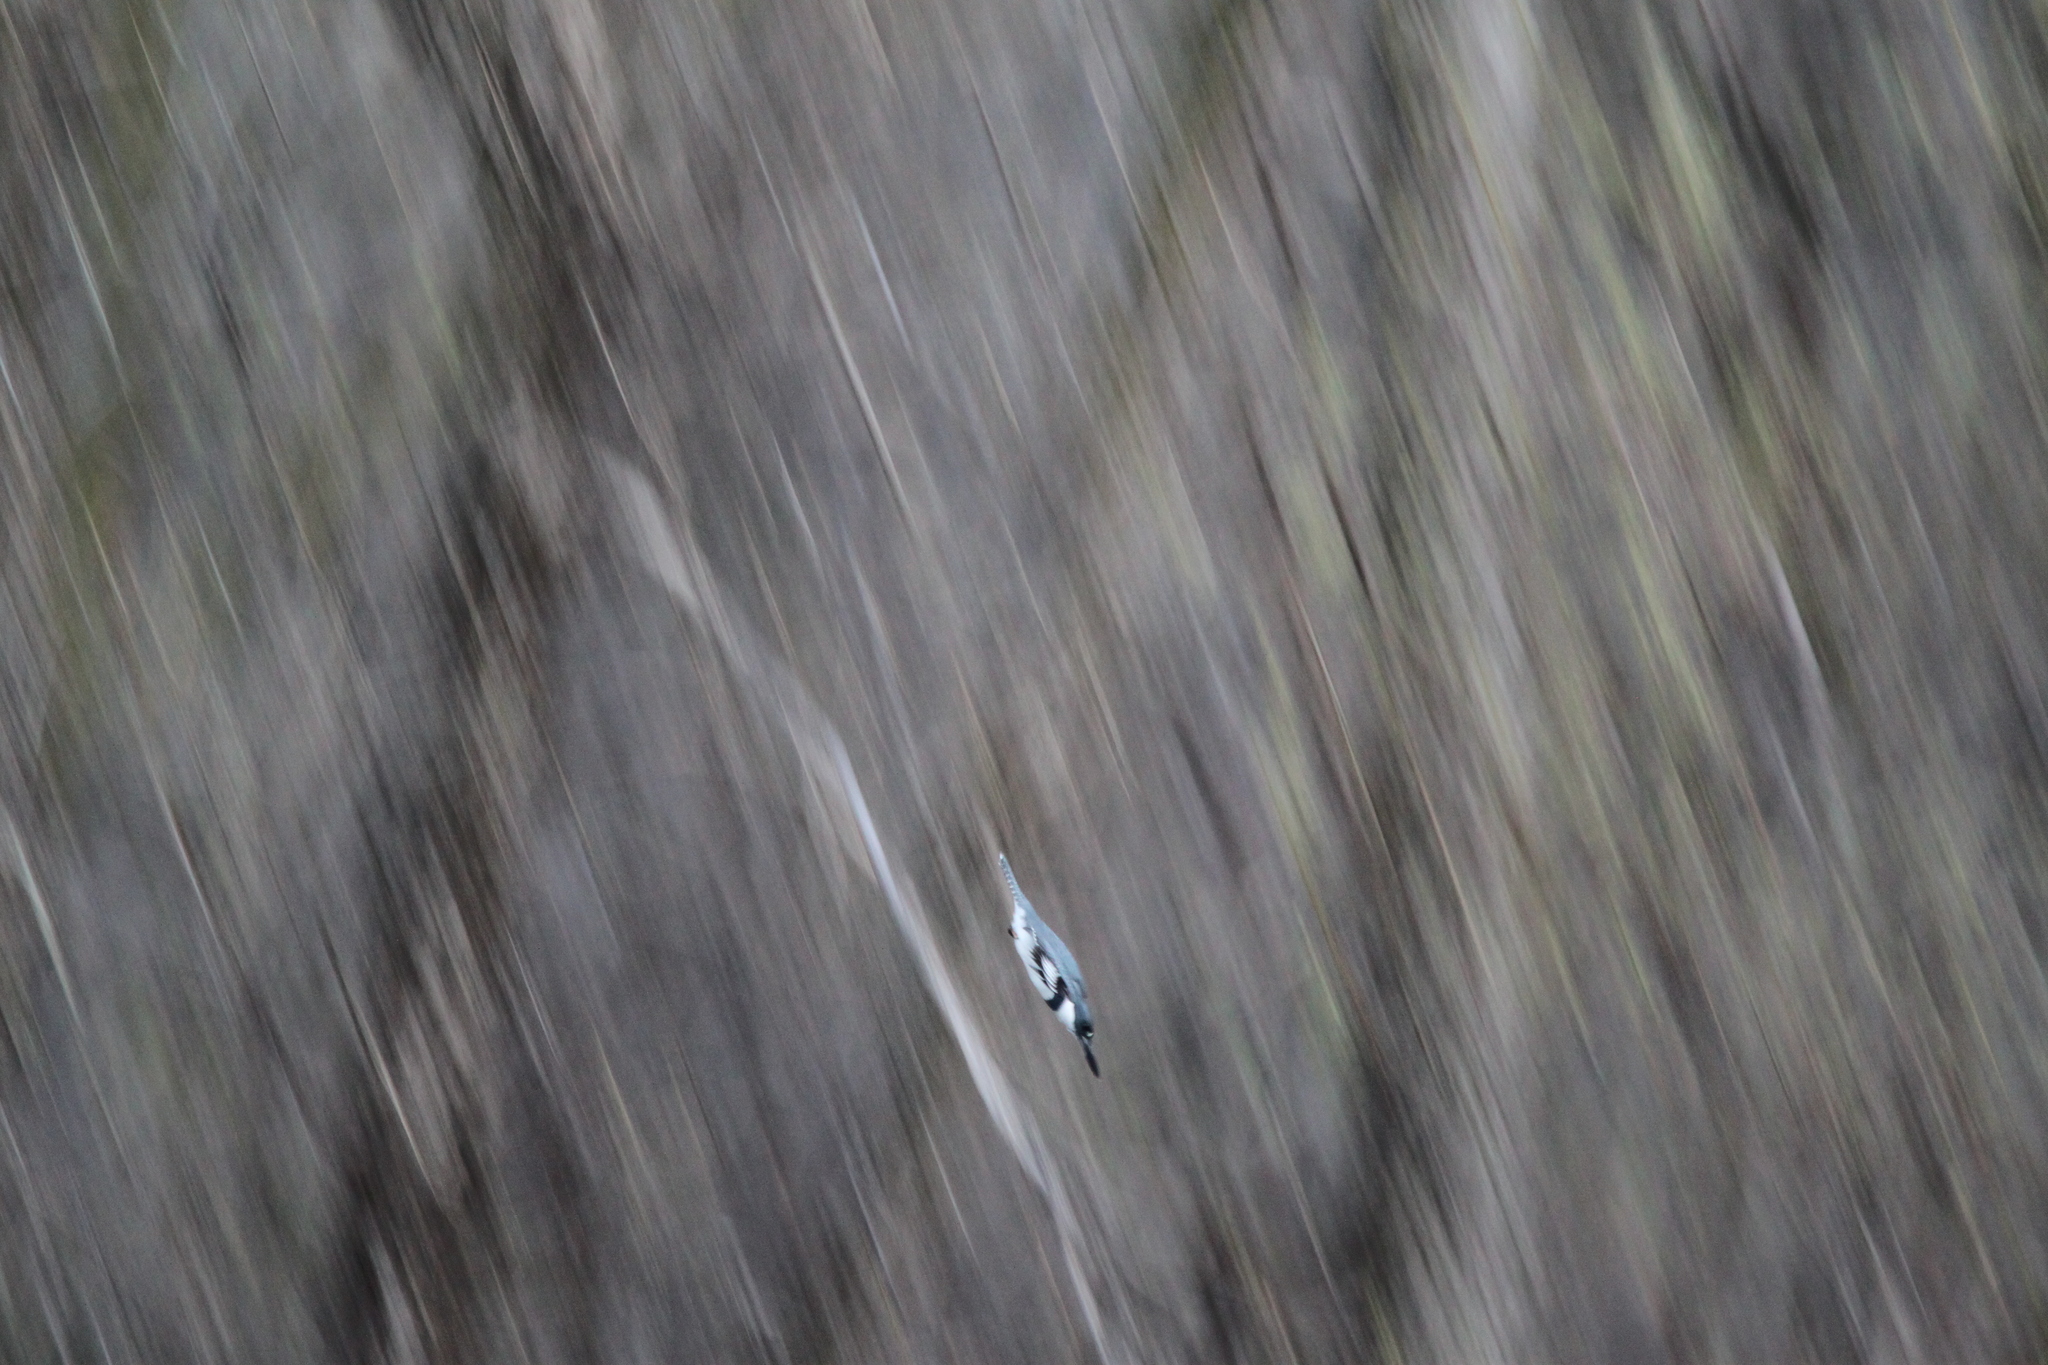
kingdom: Animalia
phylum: Chordata
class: Aves
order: Coraciiformes
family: Alcedinidae
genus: Megaceryle
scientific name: Megaceryle alcyon
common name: Belted kingfisher
